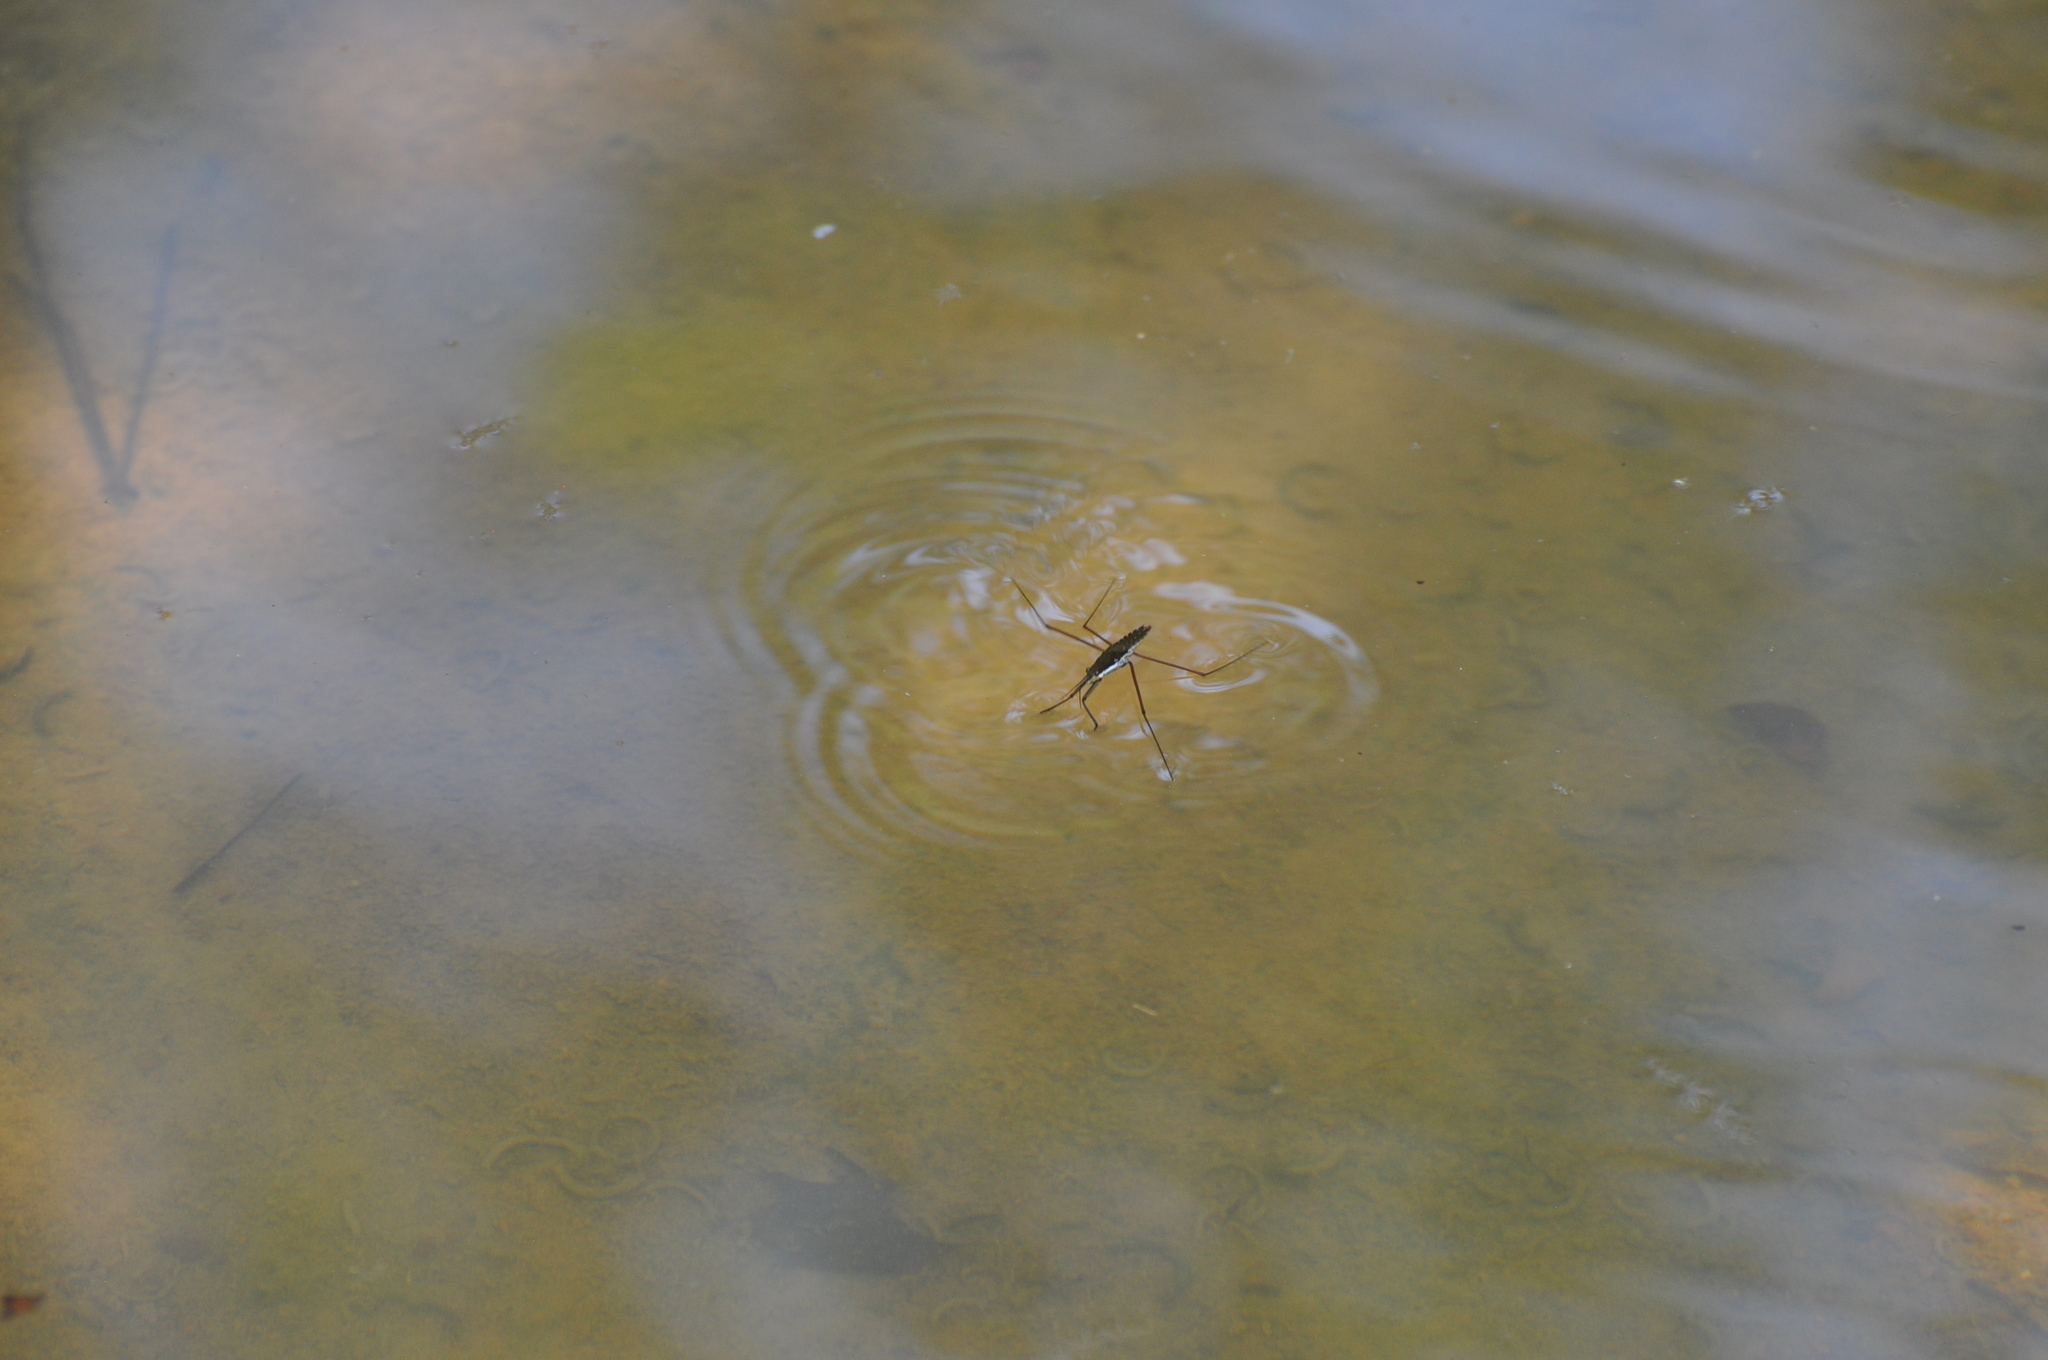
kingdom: Animalia
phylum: Arthropoda
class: Insecta
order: Hemiptera
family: Gerridae
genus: Aquarius
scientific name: Aquarius remigis
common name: Common water strider
